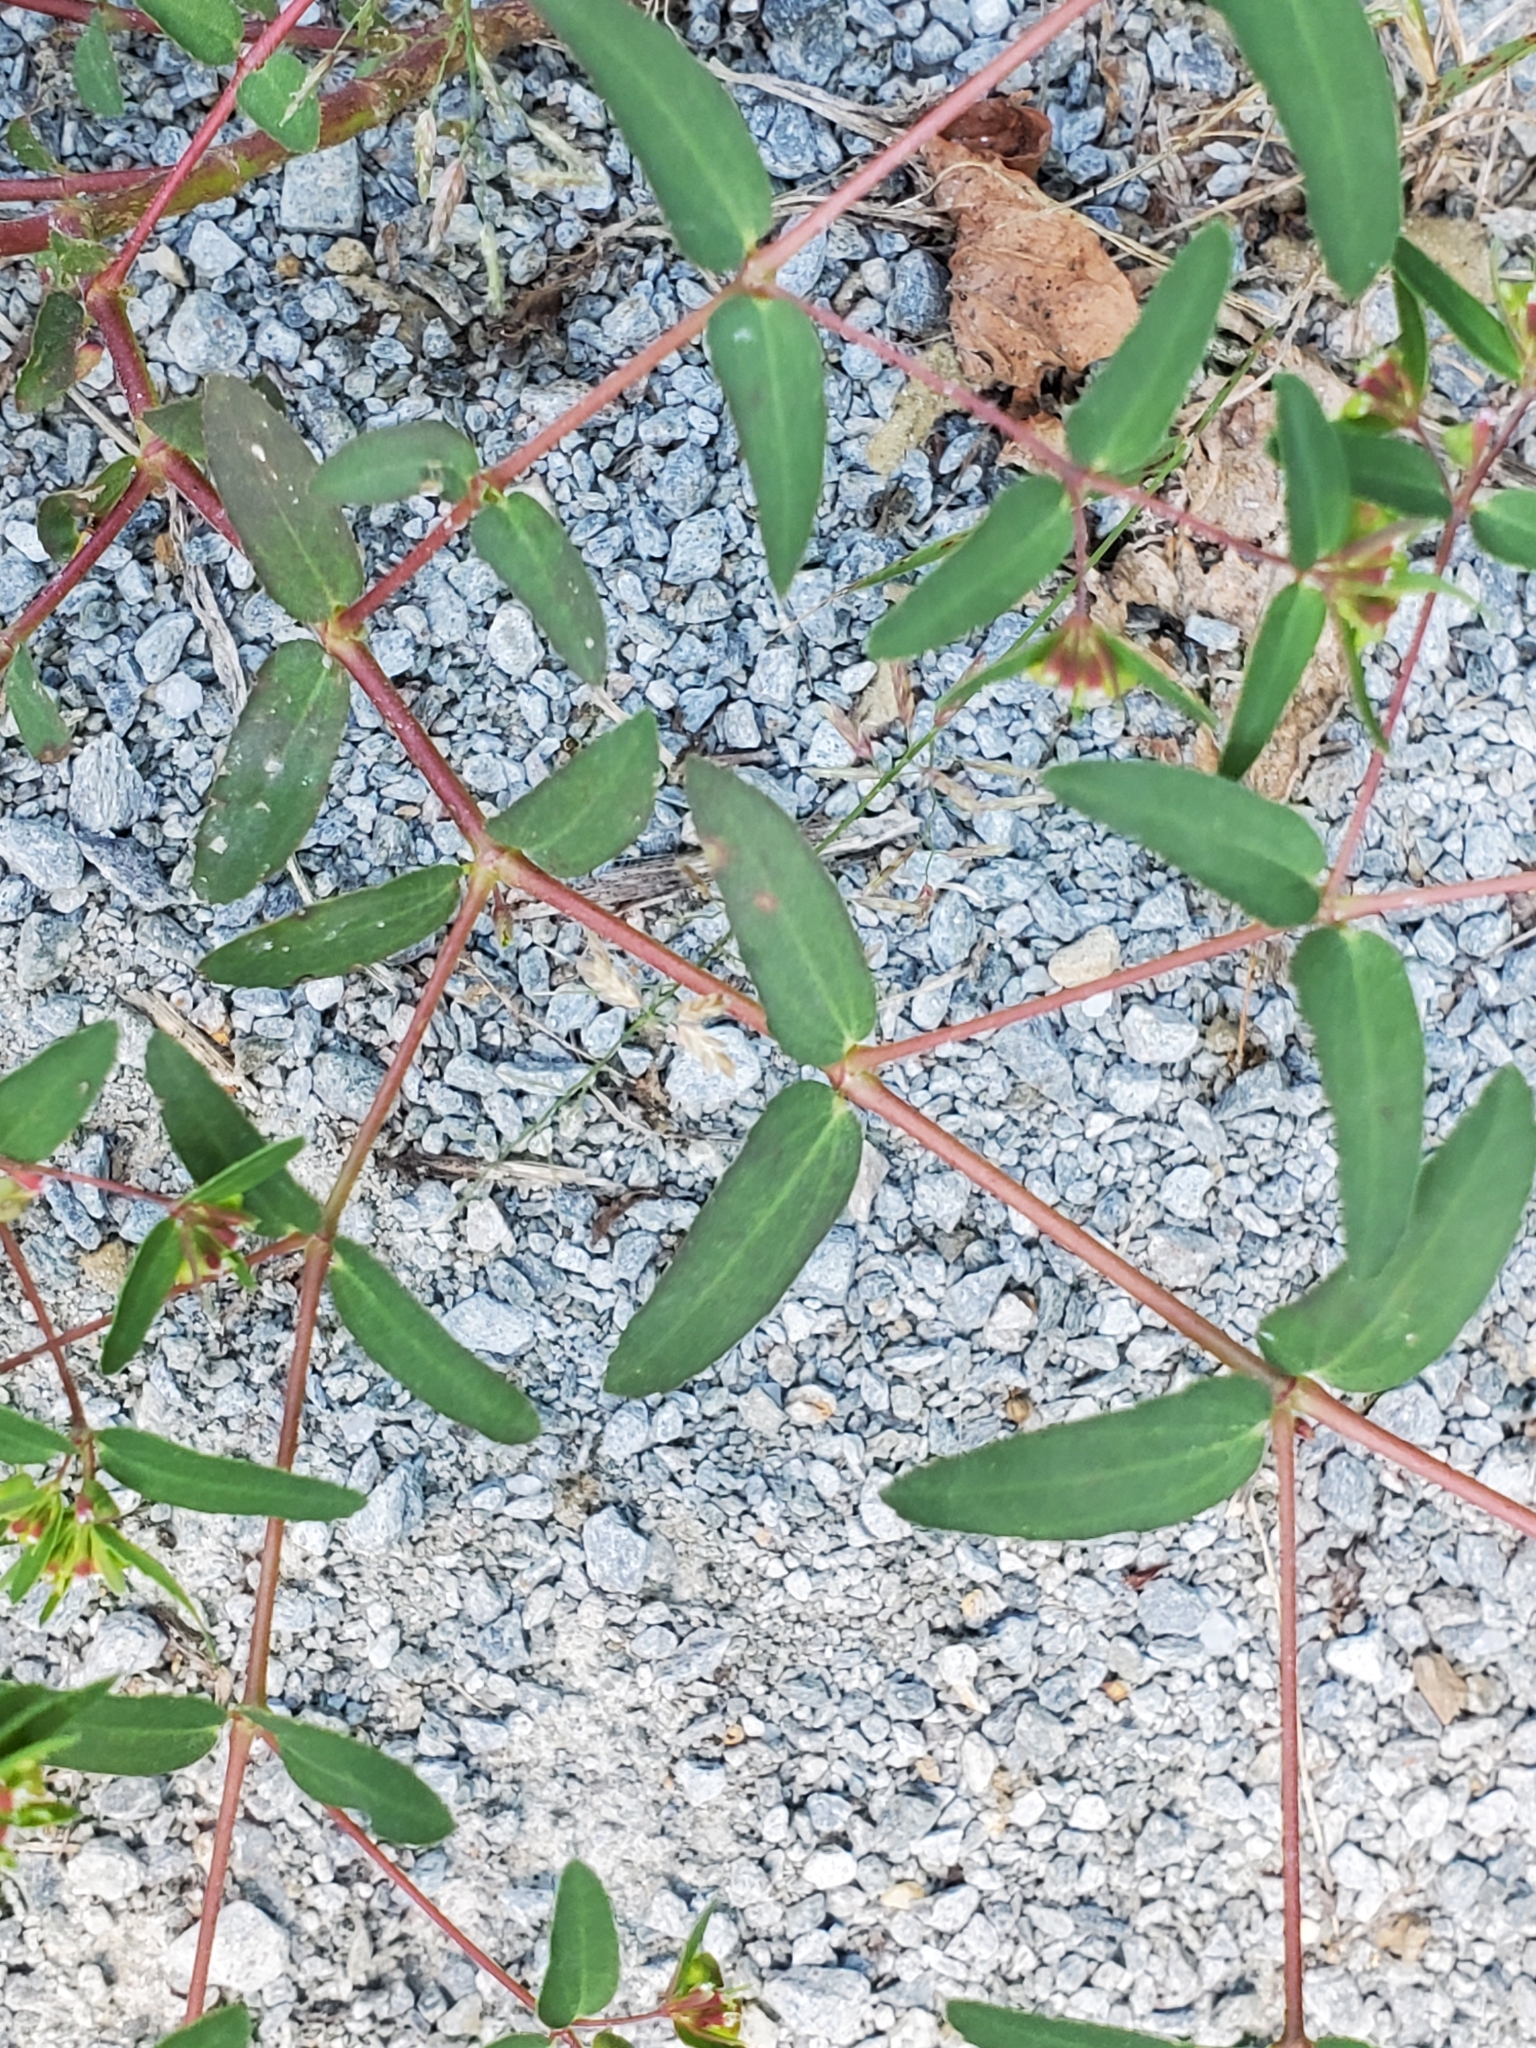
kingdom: Plantae
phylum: Tracheophyta
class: Magnoliopsida
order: Malpighiales
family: Euphorbiaceae
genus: Euphorbia
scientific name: Euphorbia nutans
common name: Eyebane
